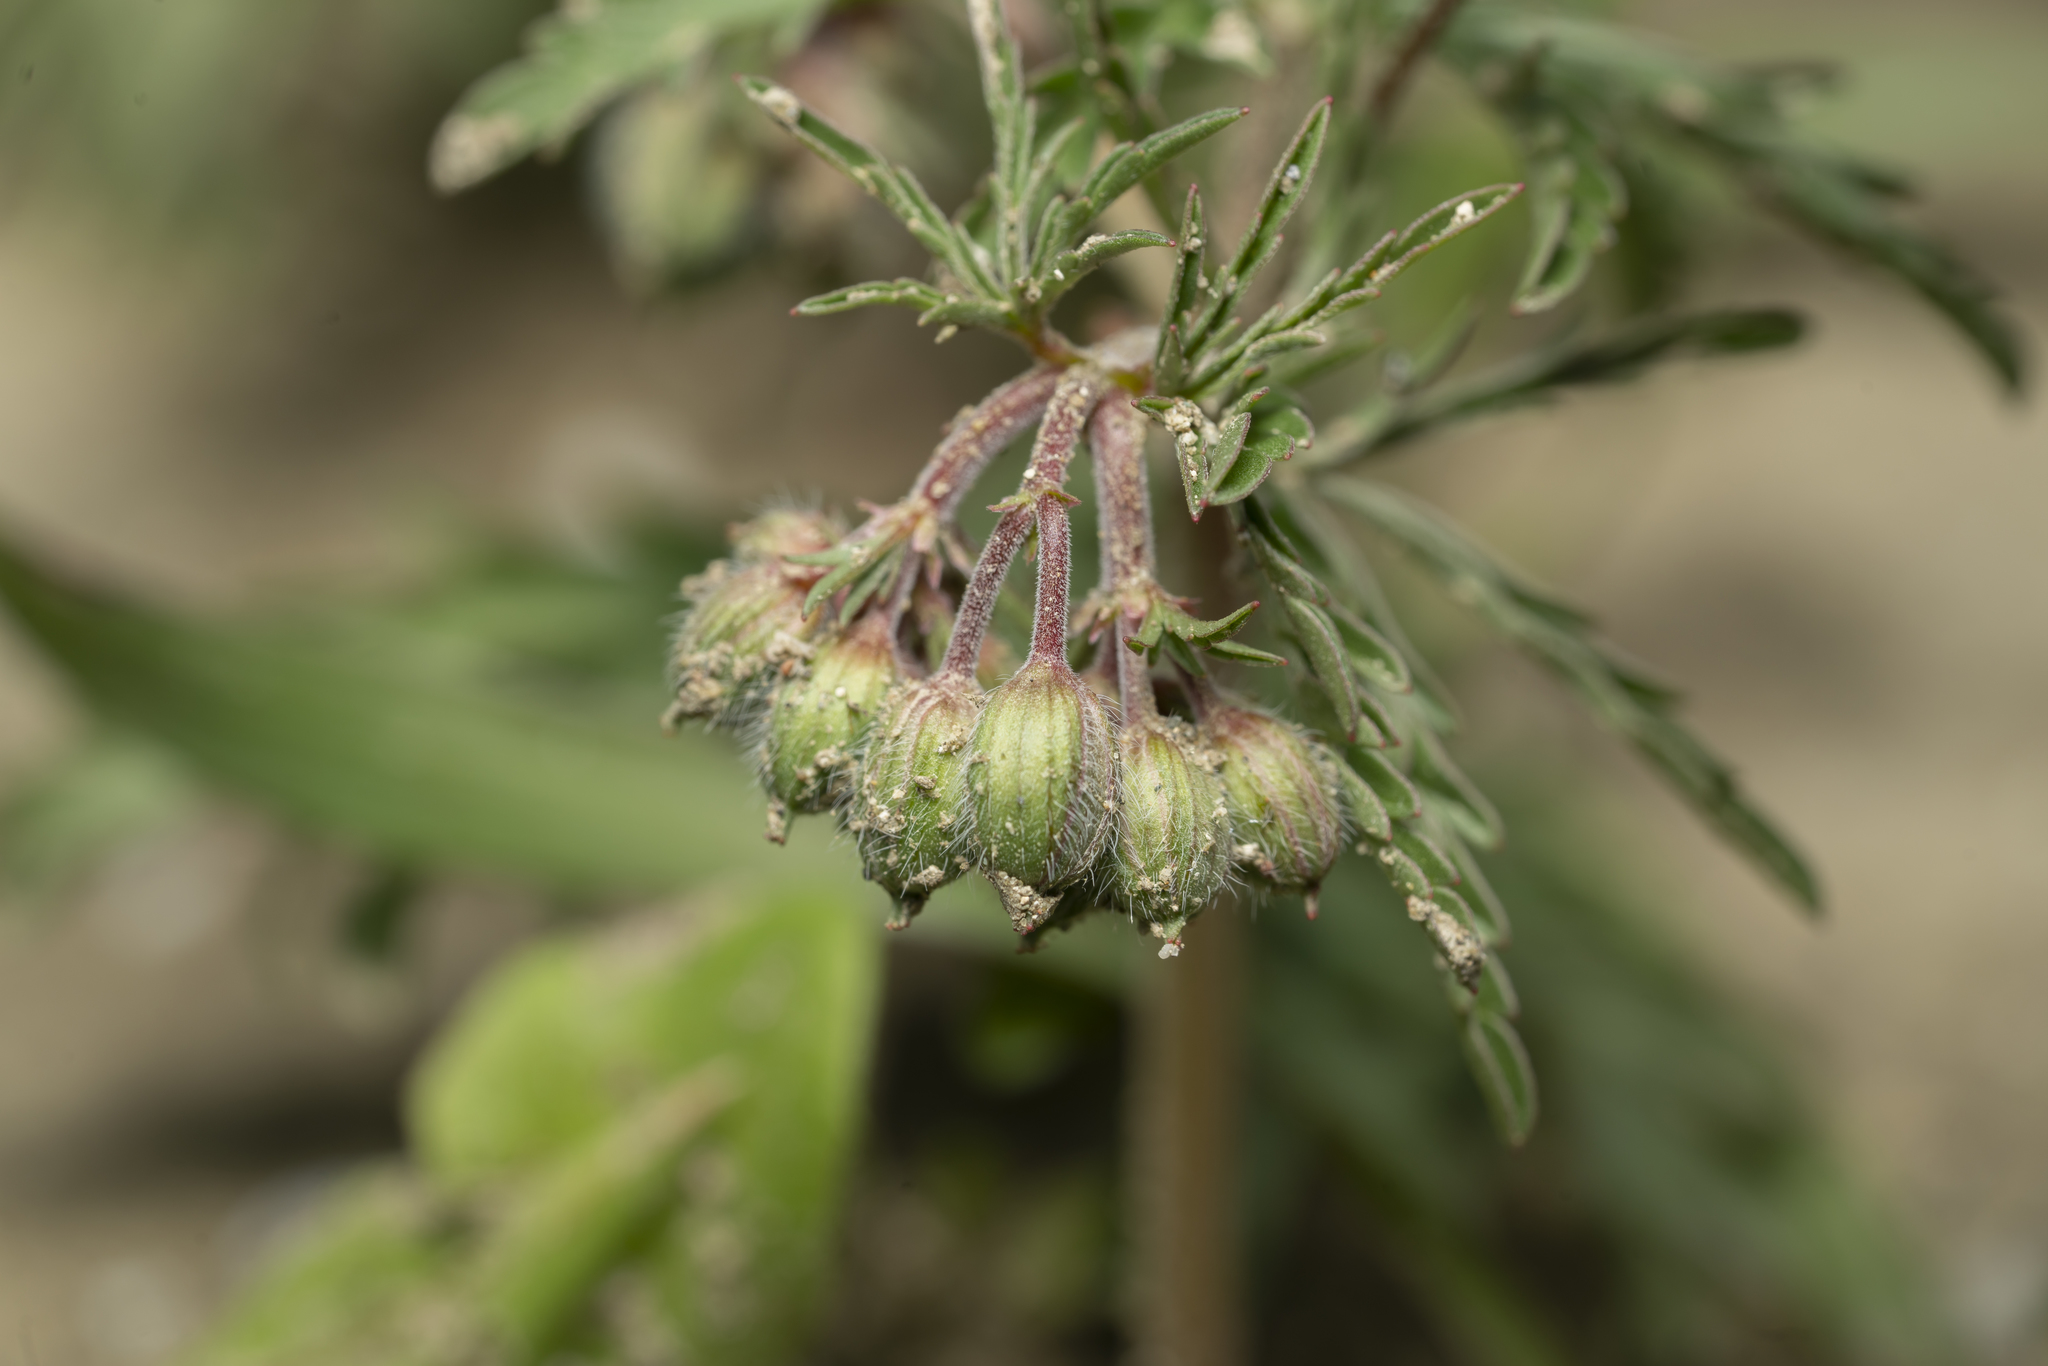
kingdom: Plantae
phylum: Tracheophyta
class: Magnoliopsida
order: Geraniales
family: Geraniaceae
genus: Geranium
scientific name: Geranium tuberosum
